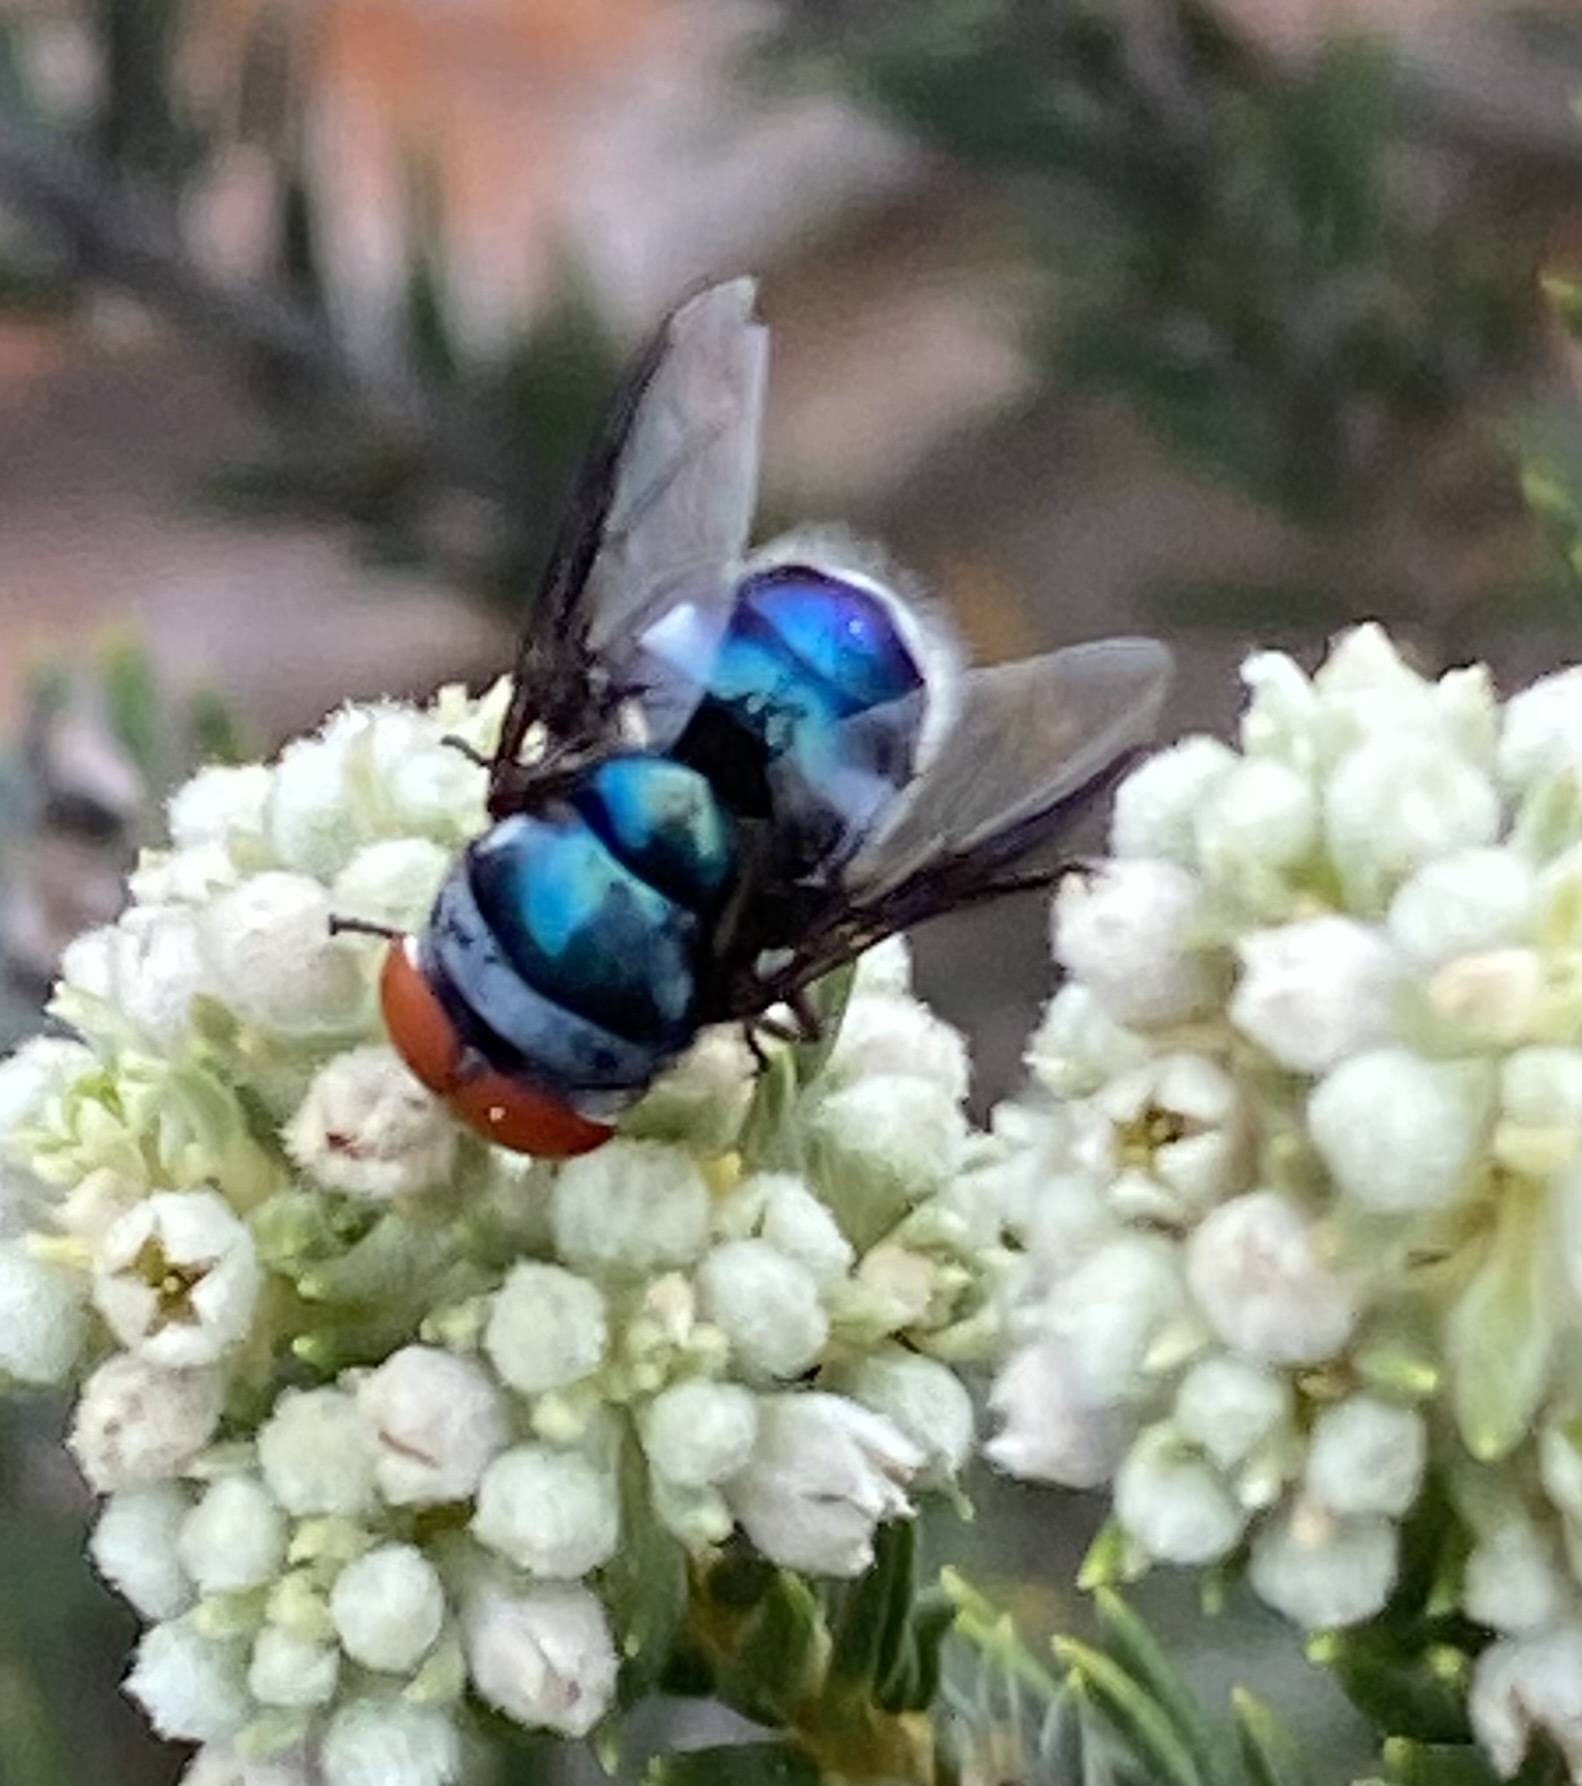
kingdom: Animalia
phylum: Arthropoda
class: Insecta
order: Diptera
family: Calliphoridae
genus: Chrysomya
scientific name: Chrysomya marginalis
